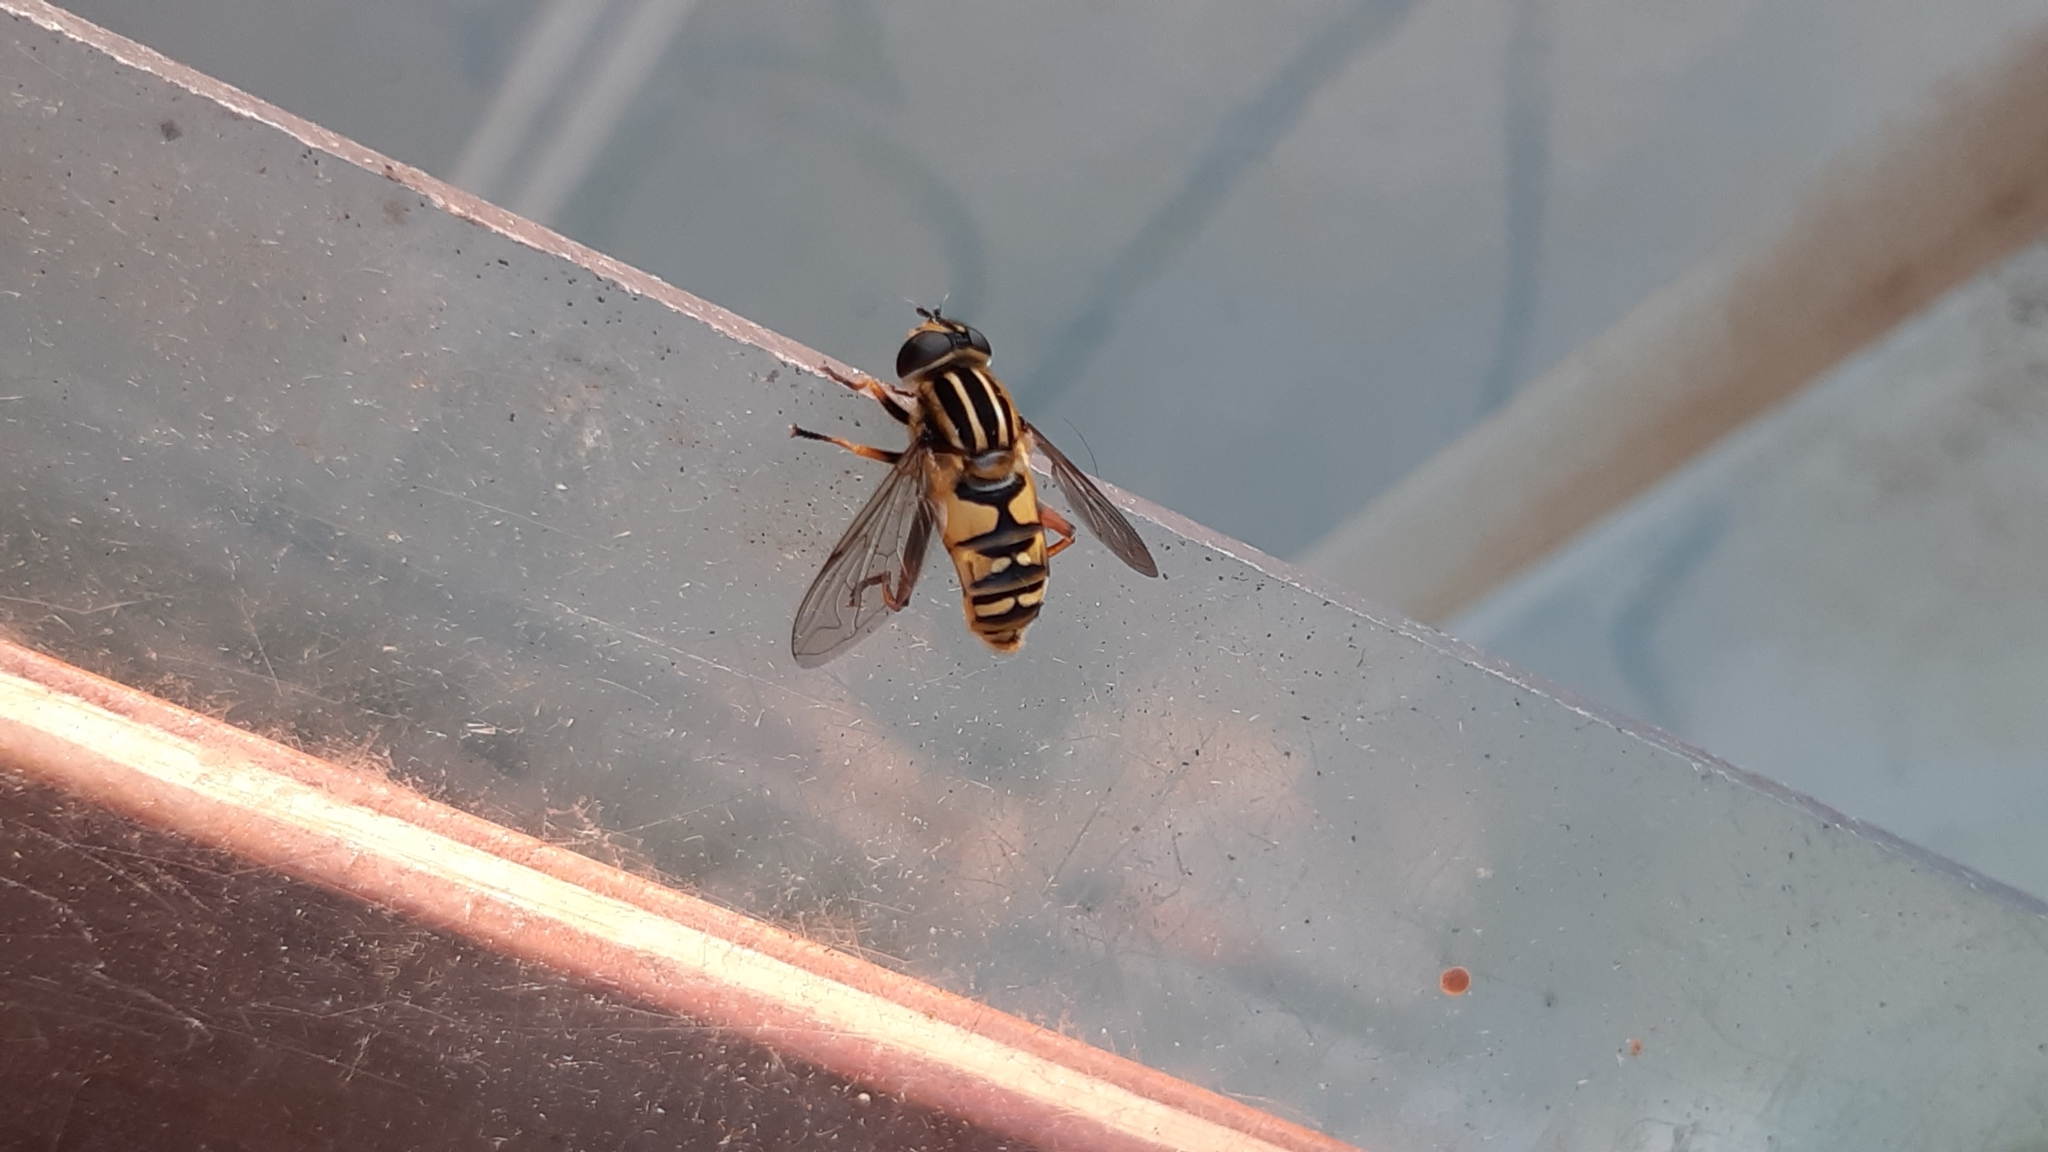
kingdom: Animalia
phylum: Arthropoda
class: Insecta
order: Diptera
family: Syrphidae
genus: Helophilus
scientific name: Helophilus pendulus
